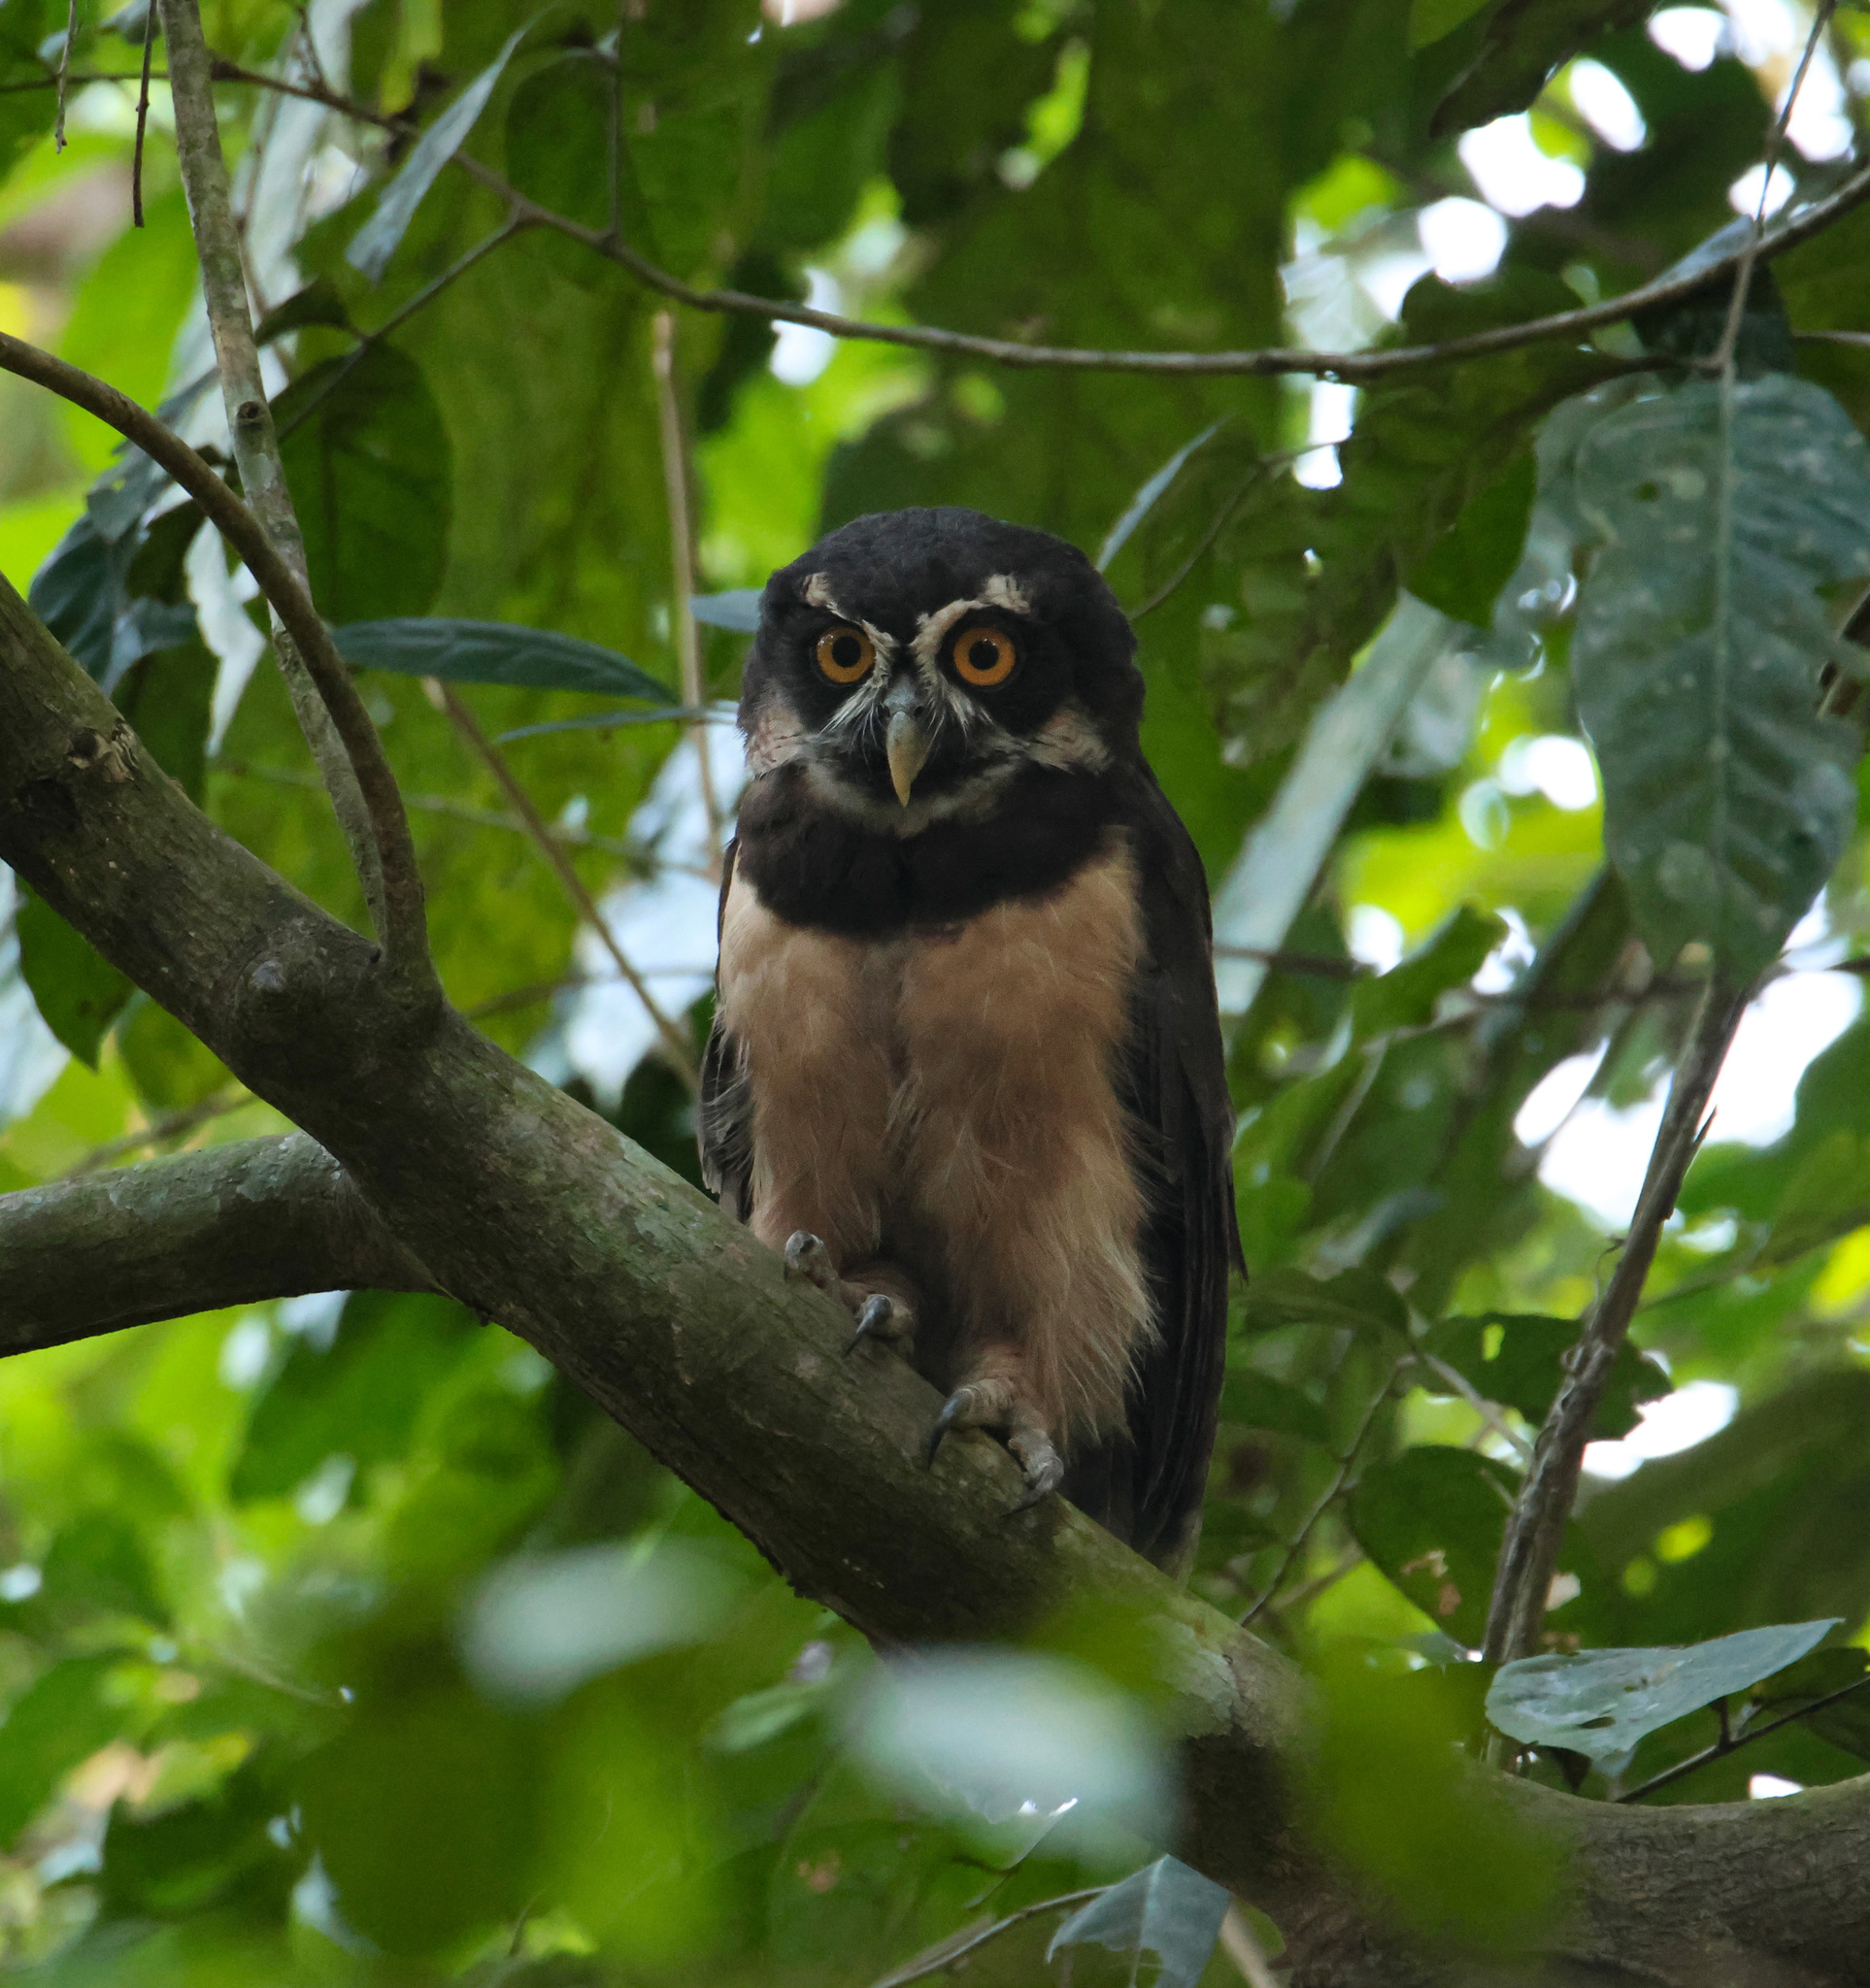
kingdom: Animalia
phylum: Chordata
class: Aves
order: Strigiformes
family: Strigidae
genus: Pulsatrix
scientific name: Pulsatrix perspicillata
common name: Spectacled owl
